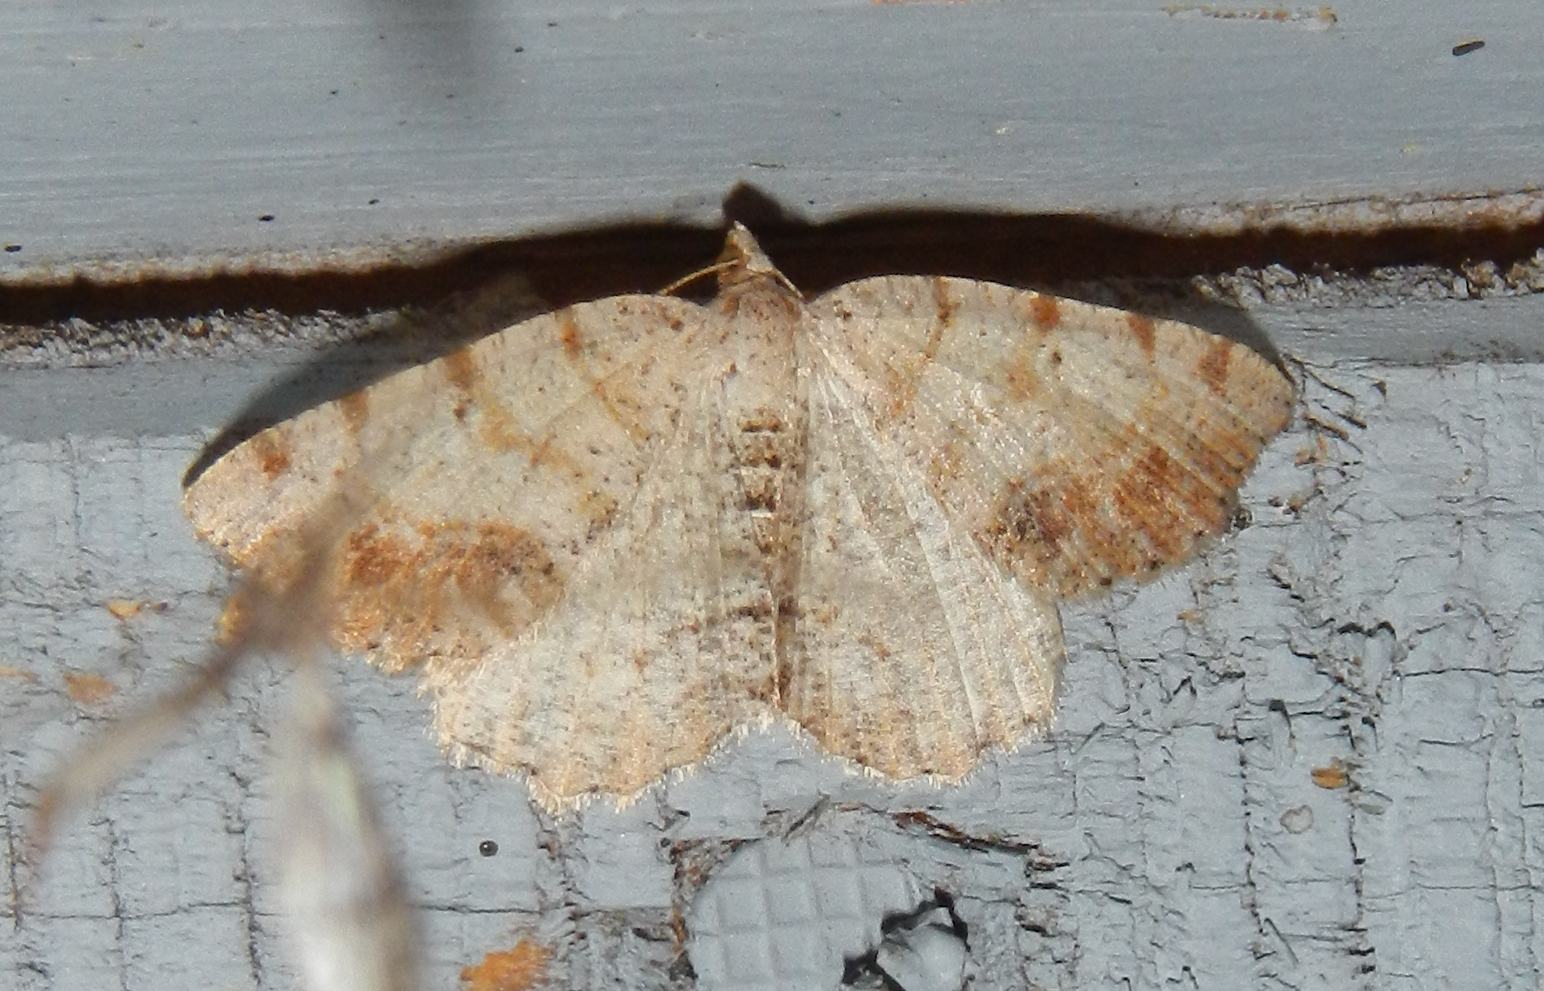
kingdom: Animalia
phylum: Arthropoda
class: Insecta
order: Lepidoptera
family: Geometridae
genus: Macaria
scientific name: Macaria exauspicata
